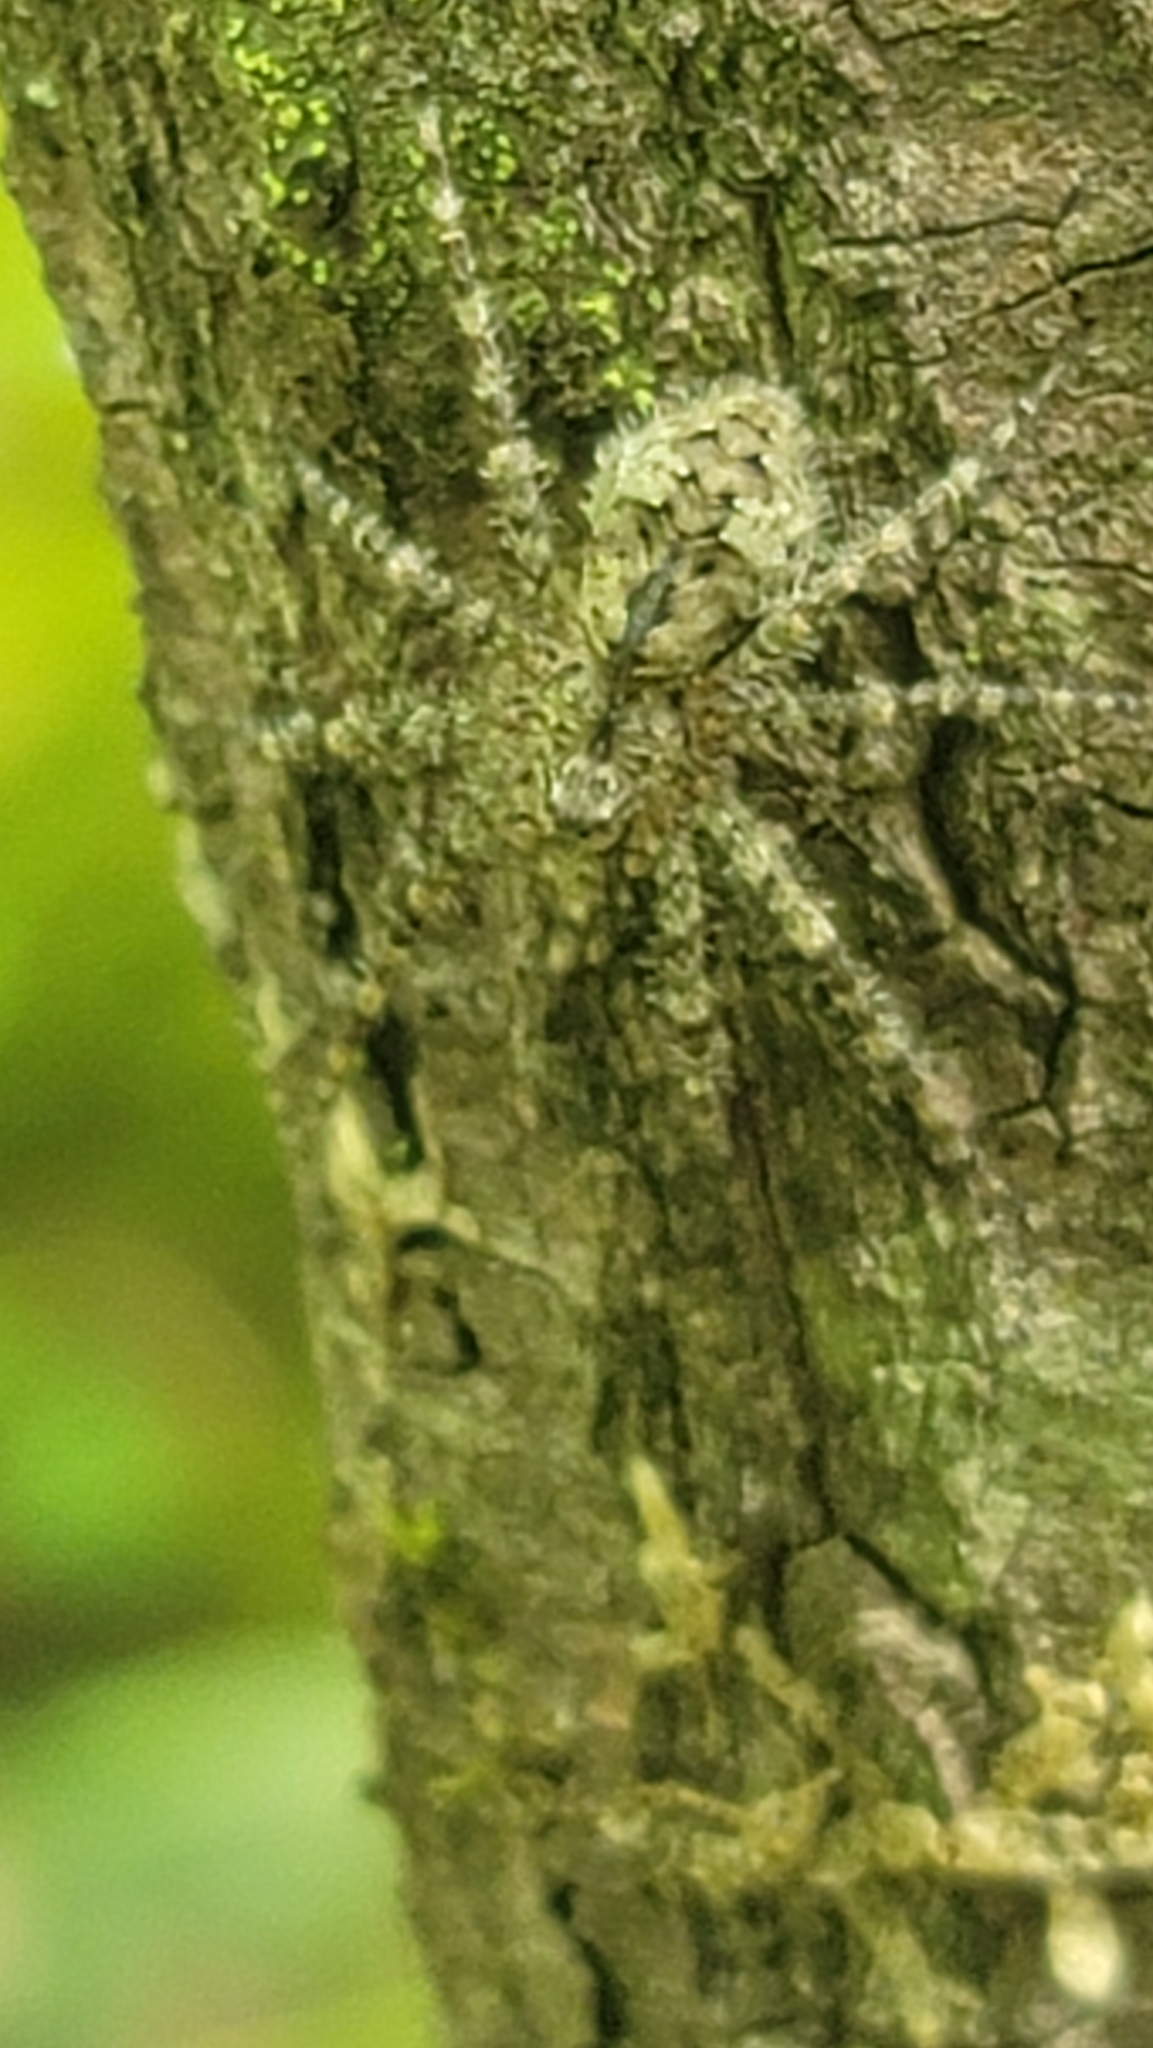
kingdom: Animalia
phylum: Arthropoda
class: Arachnida
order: Araneae
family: Pisauridae
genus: Dolomedes
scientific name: Dolomedes albineus
